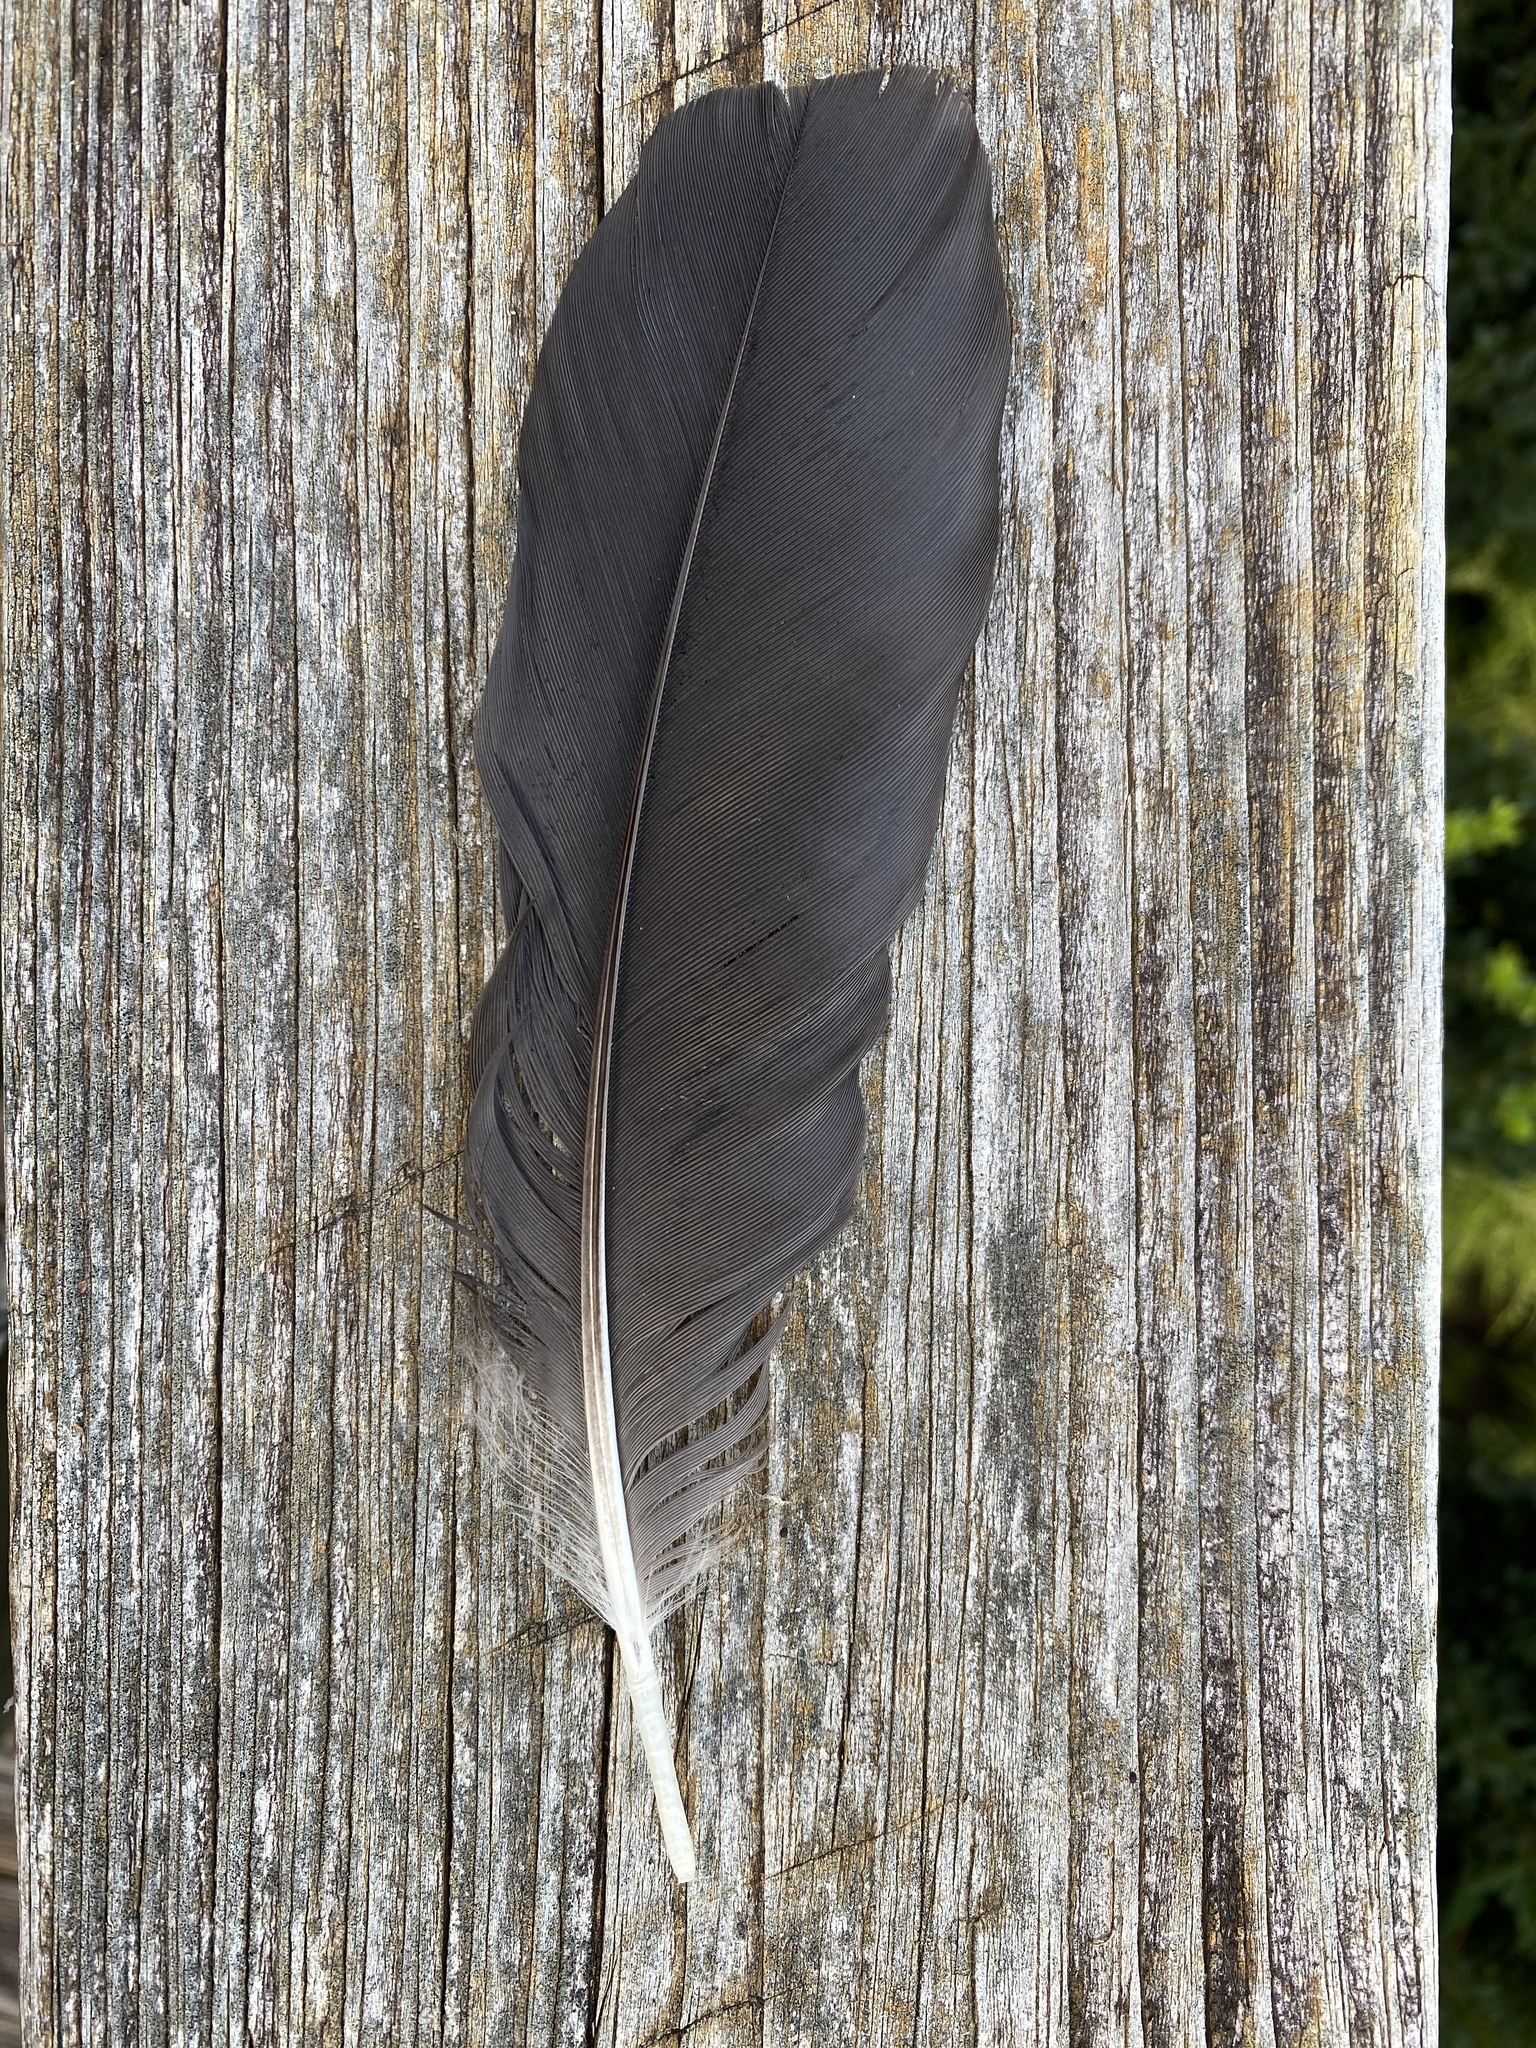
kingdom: Animalia
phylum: Chordata
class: Aves
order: Passeriformes
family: Corvidae
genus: Corvus
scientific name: Corvus ossifragus
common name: Fish crow
